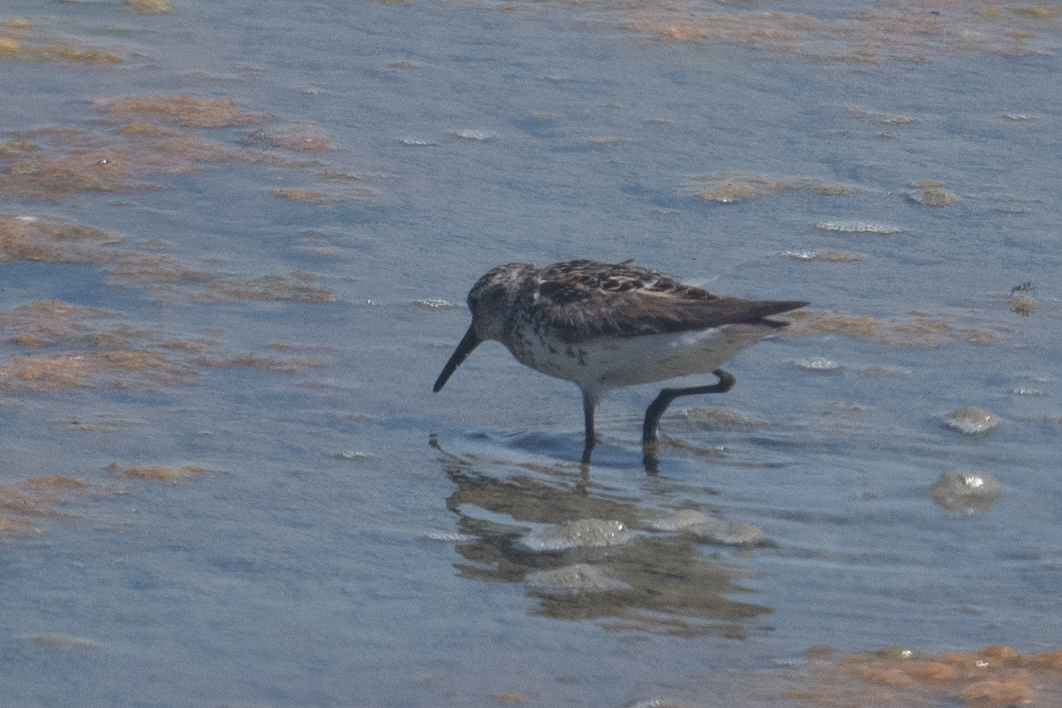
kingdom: Animalia
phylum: Chordata
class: Aves
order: Charadriiformes
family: Scolopacidae
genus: Calidris
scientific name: Calidris mauri
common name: Western sandpiper
